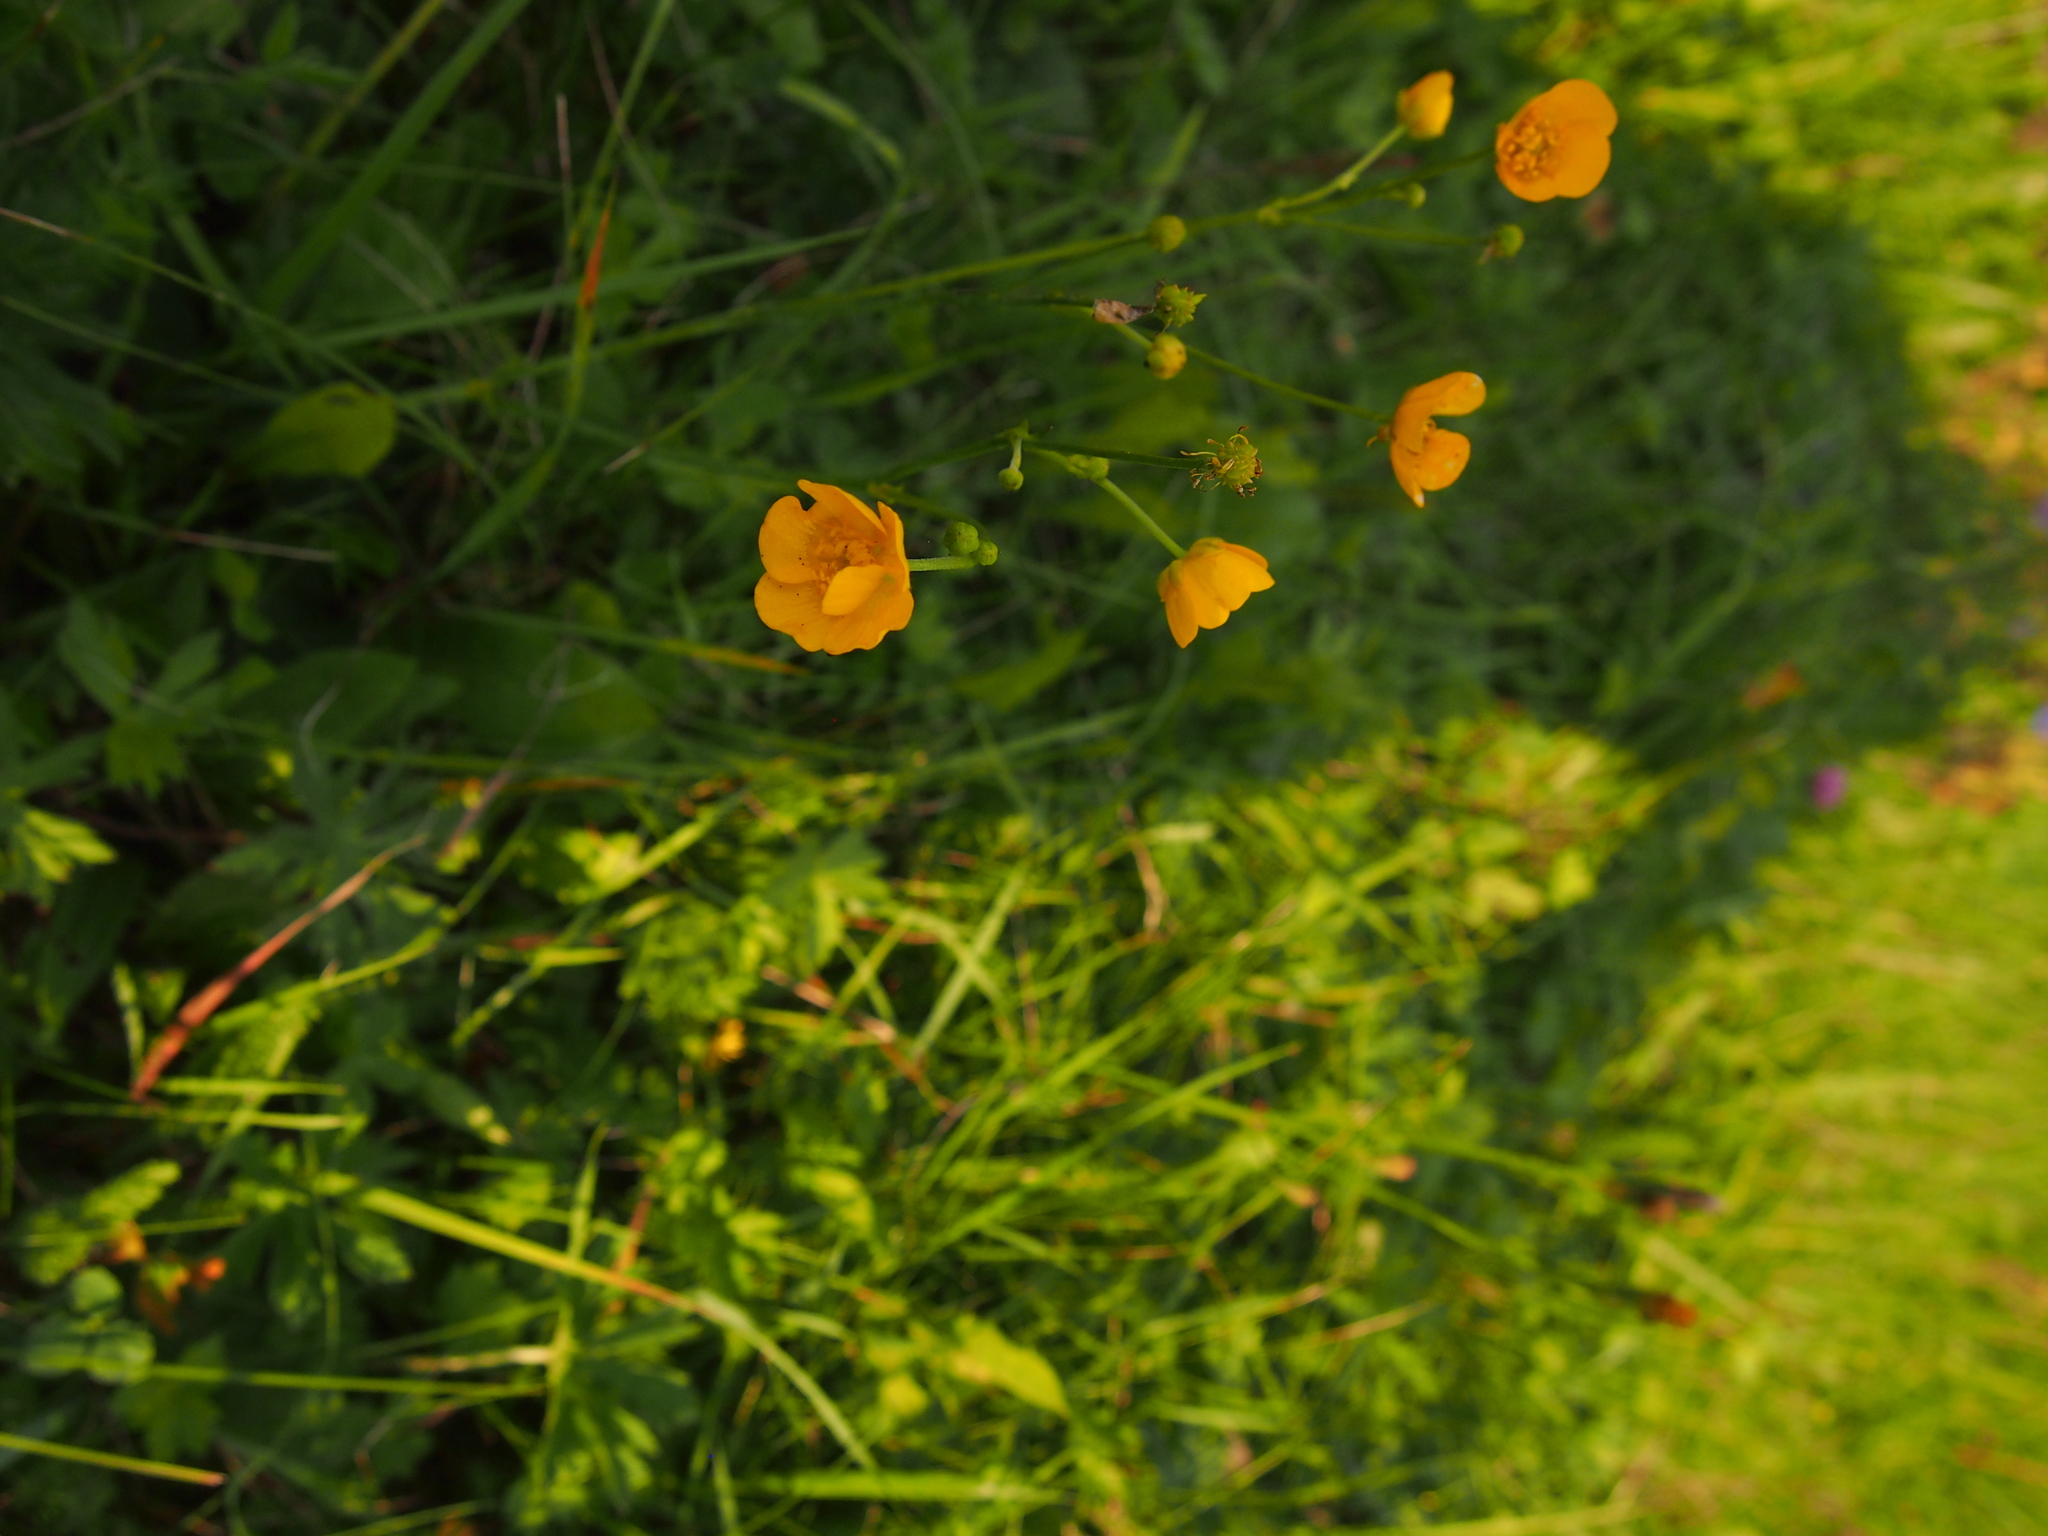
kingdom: Plantae
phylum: Tracheophyta
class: Magnoliopsida
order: Ranunculales
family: Ranunculaceae
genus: Ranunculus
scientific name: Ranunculus acris
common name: Meadow buttercup
